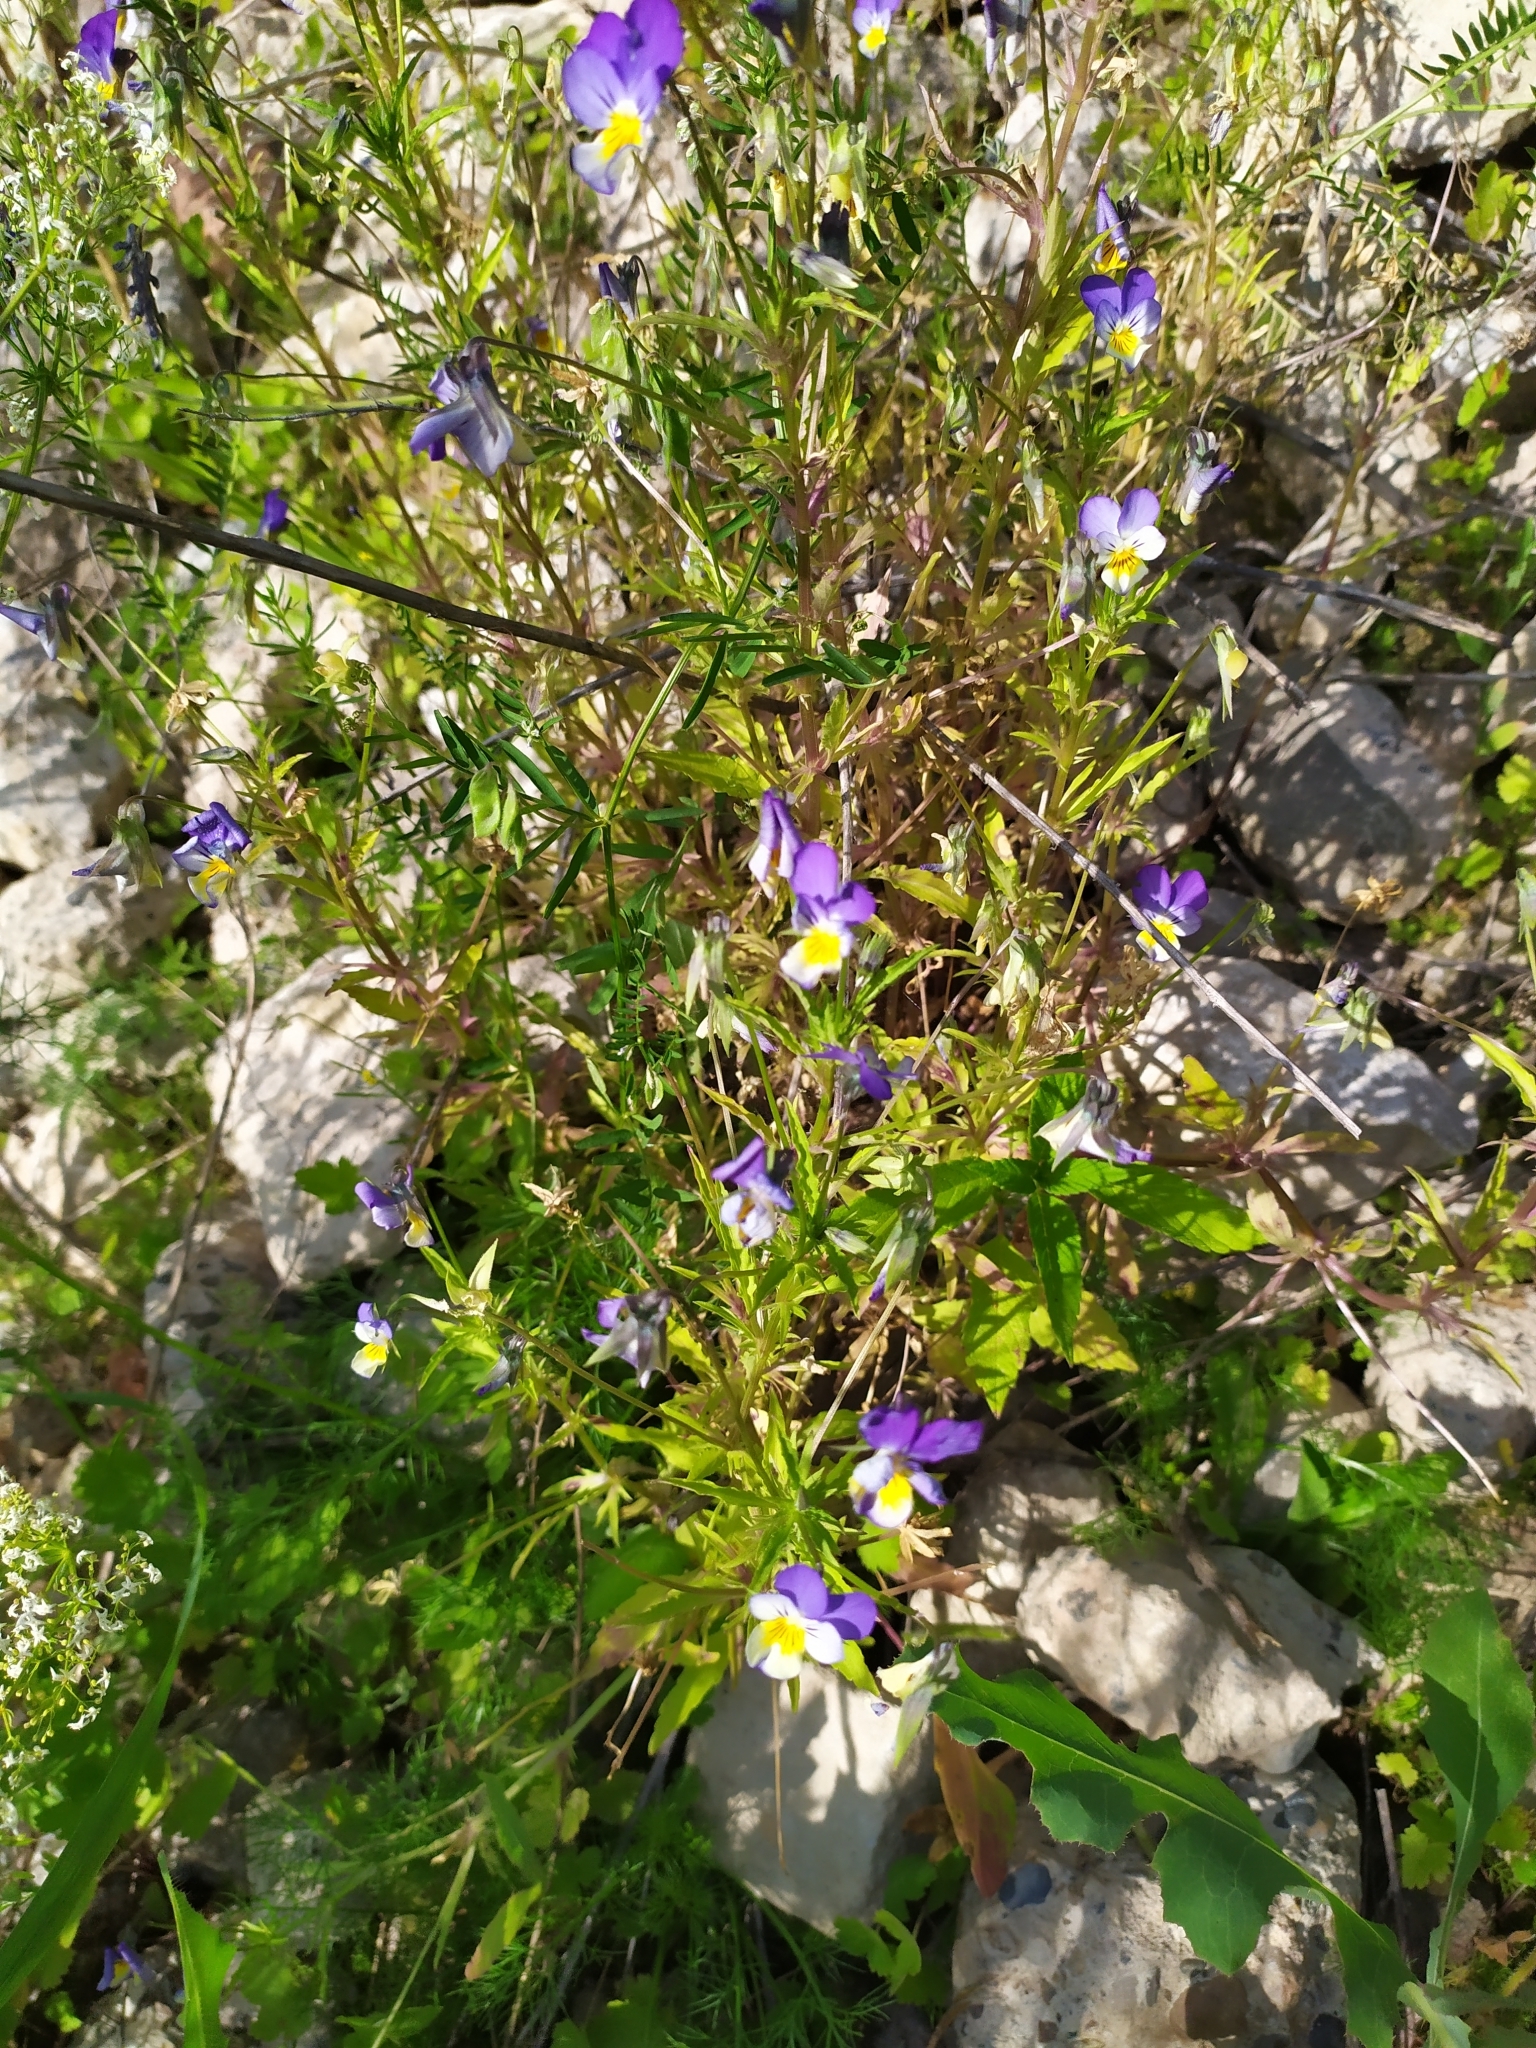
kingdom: Plantae
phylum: Tracheophyta
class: Magnoliopsida
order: Malpighiales
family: Violaceae
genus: Viola
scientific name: Viola tricolor
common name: Pansy
